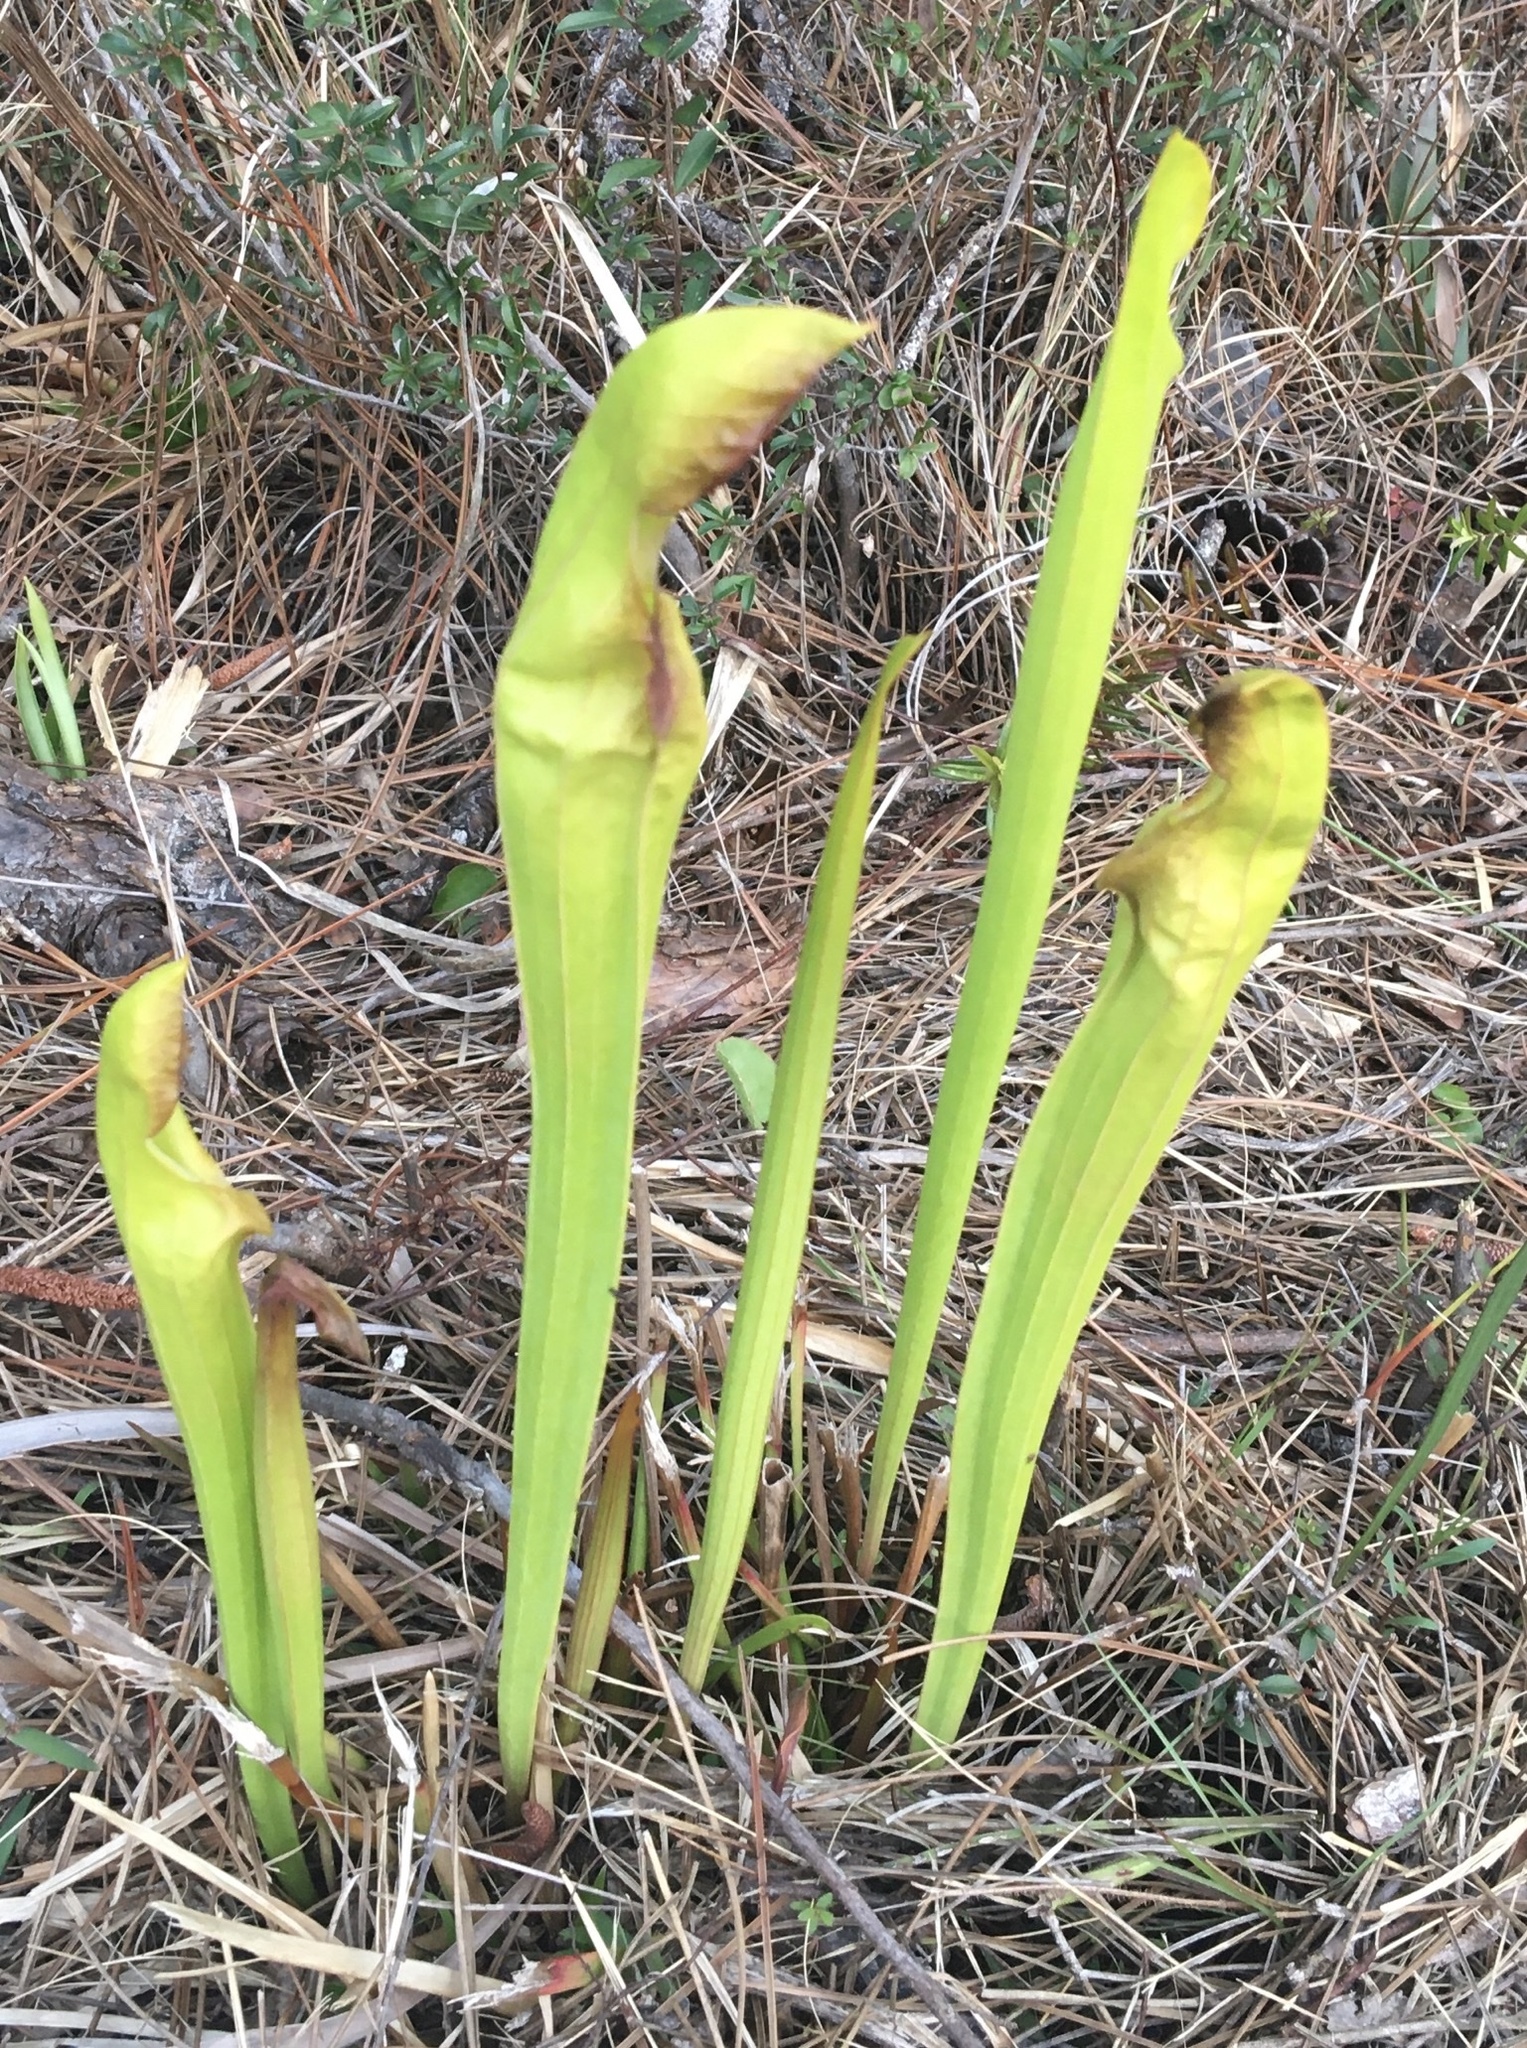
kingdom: Plantae
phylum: Tracheophyta
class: Magnoliopsida
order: Ericales
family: Sarraceniaceae
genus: Sarracenia
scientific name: Sarracenia flava
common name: Trumpets
